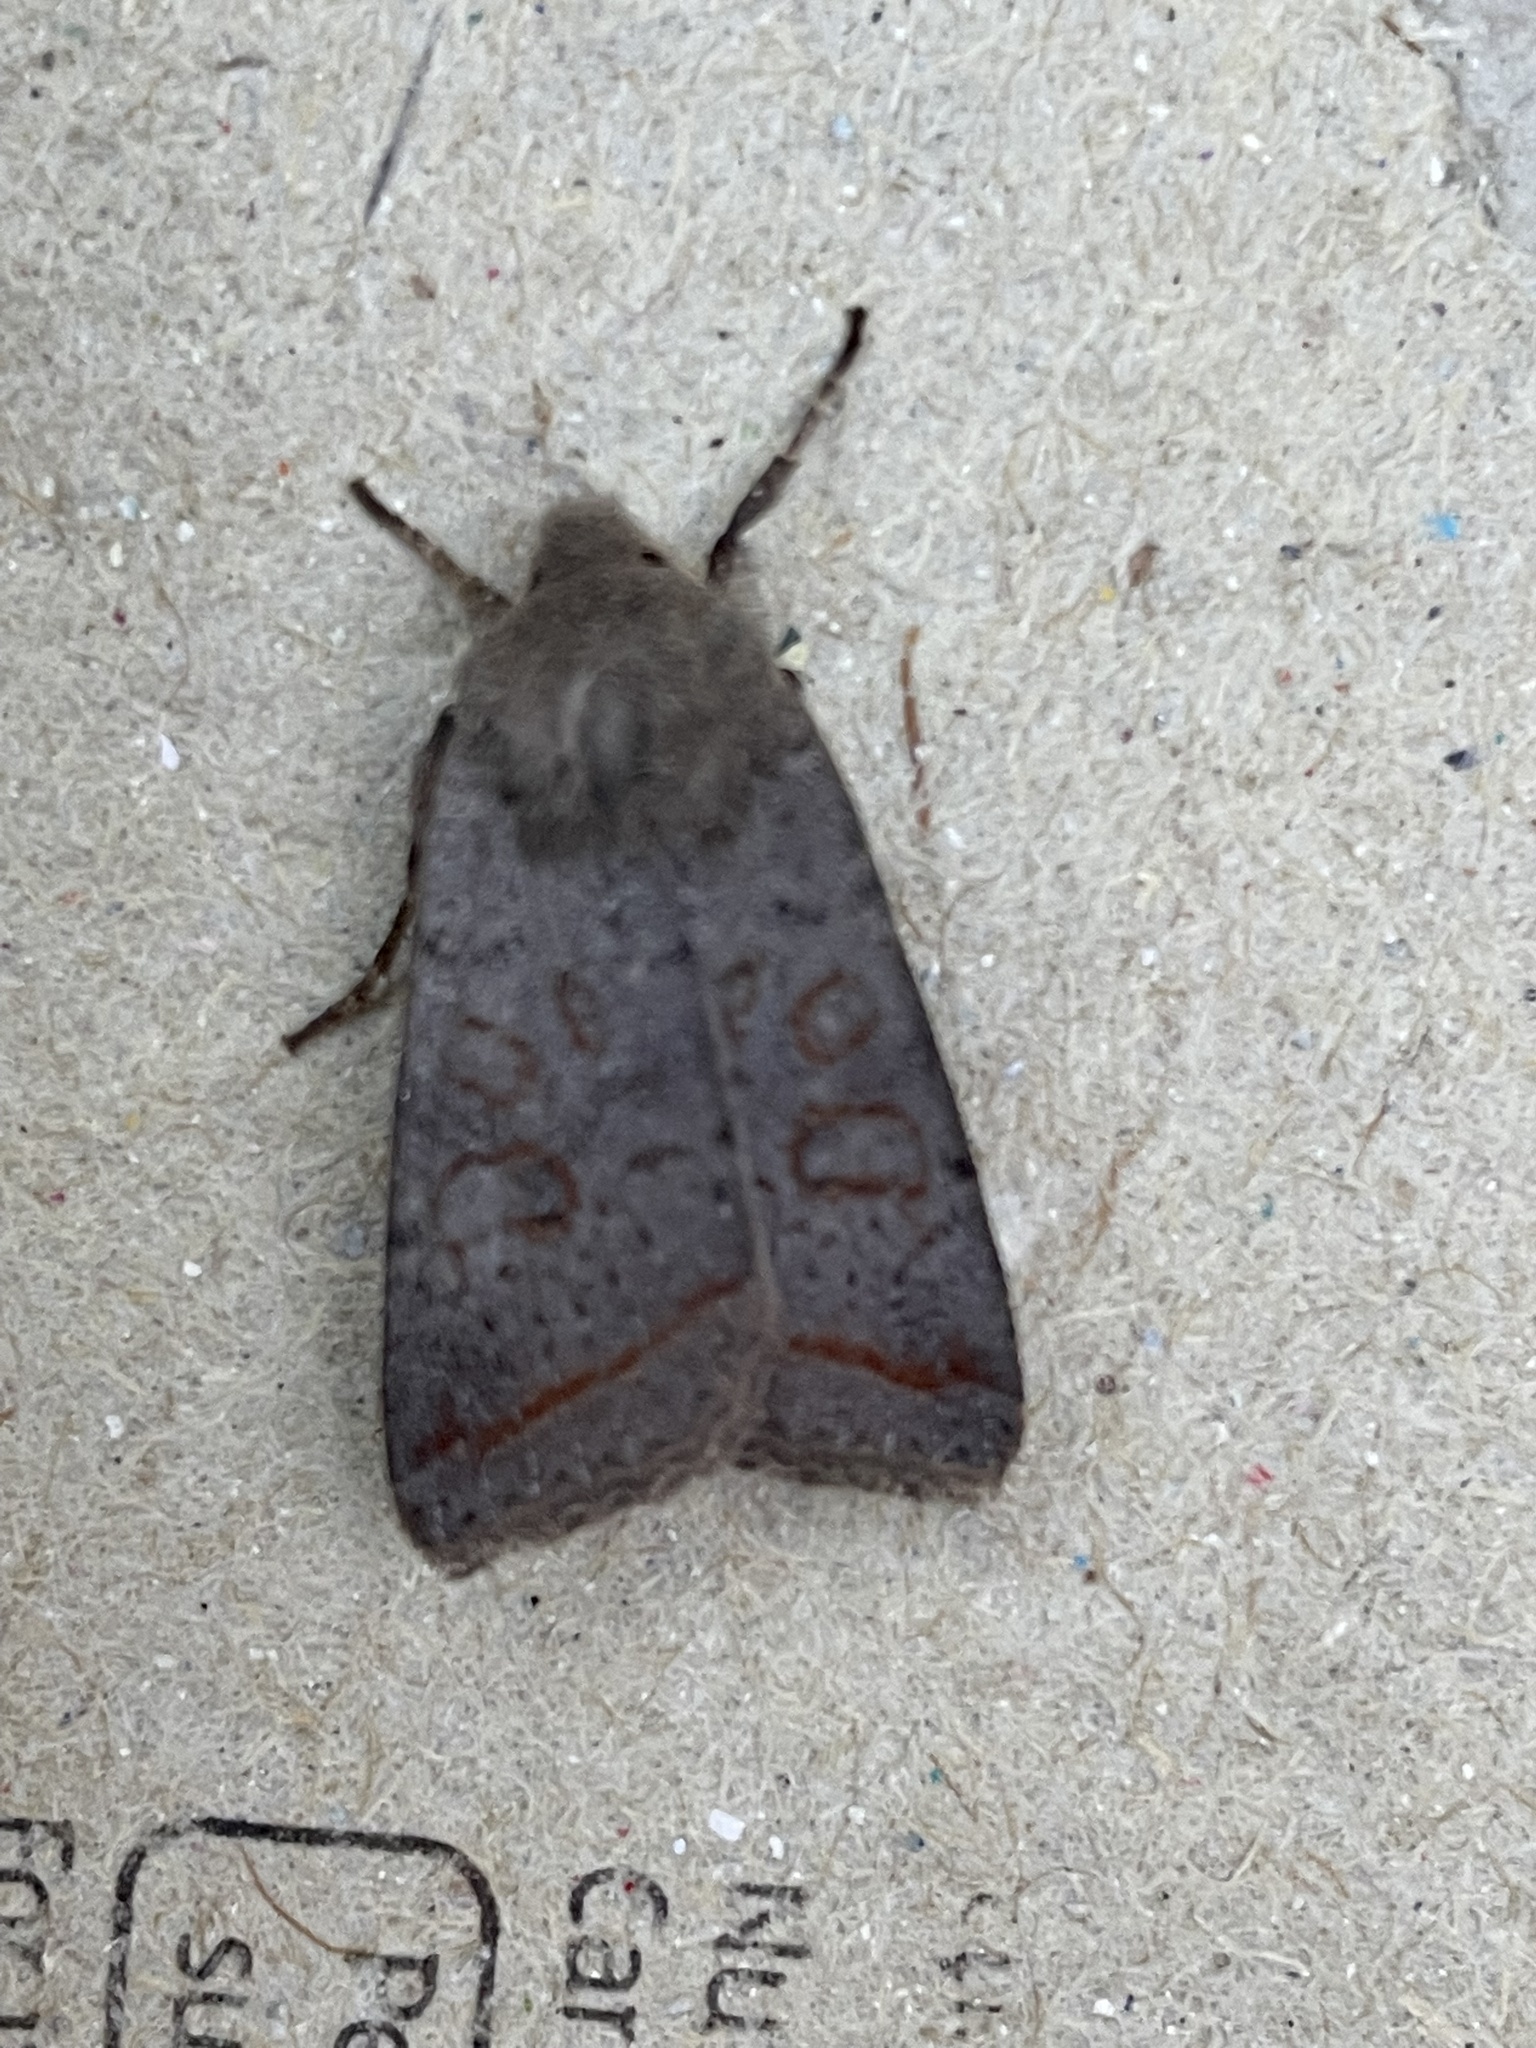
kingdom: Animalia
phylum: Arthropoda
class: Insecta
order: Lepidoptera
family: Noctuidae
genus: Agrochola
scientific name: Agrochola lota
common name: Red-line quaker
